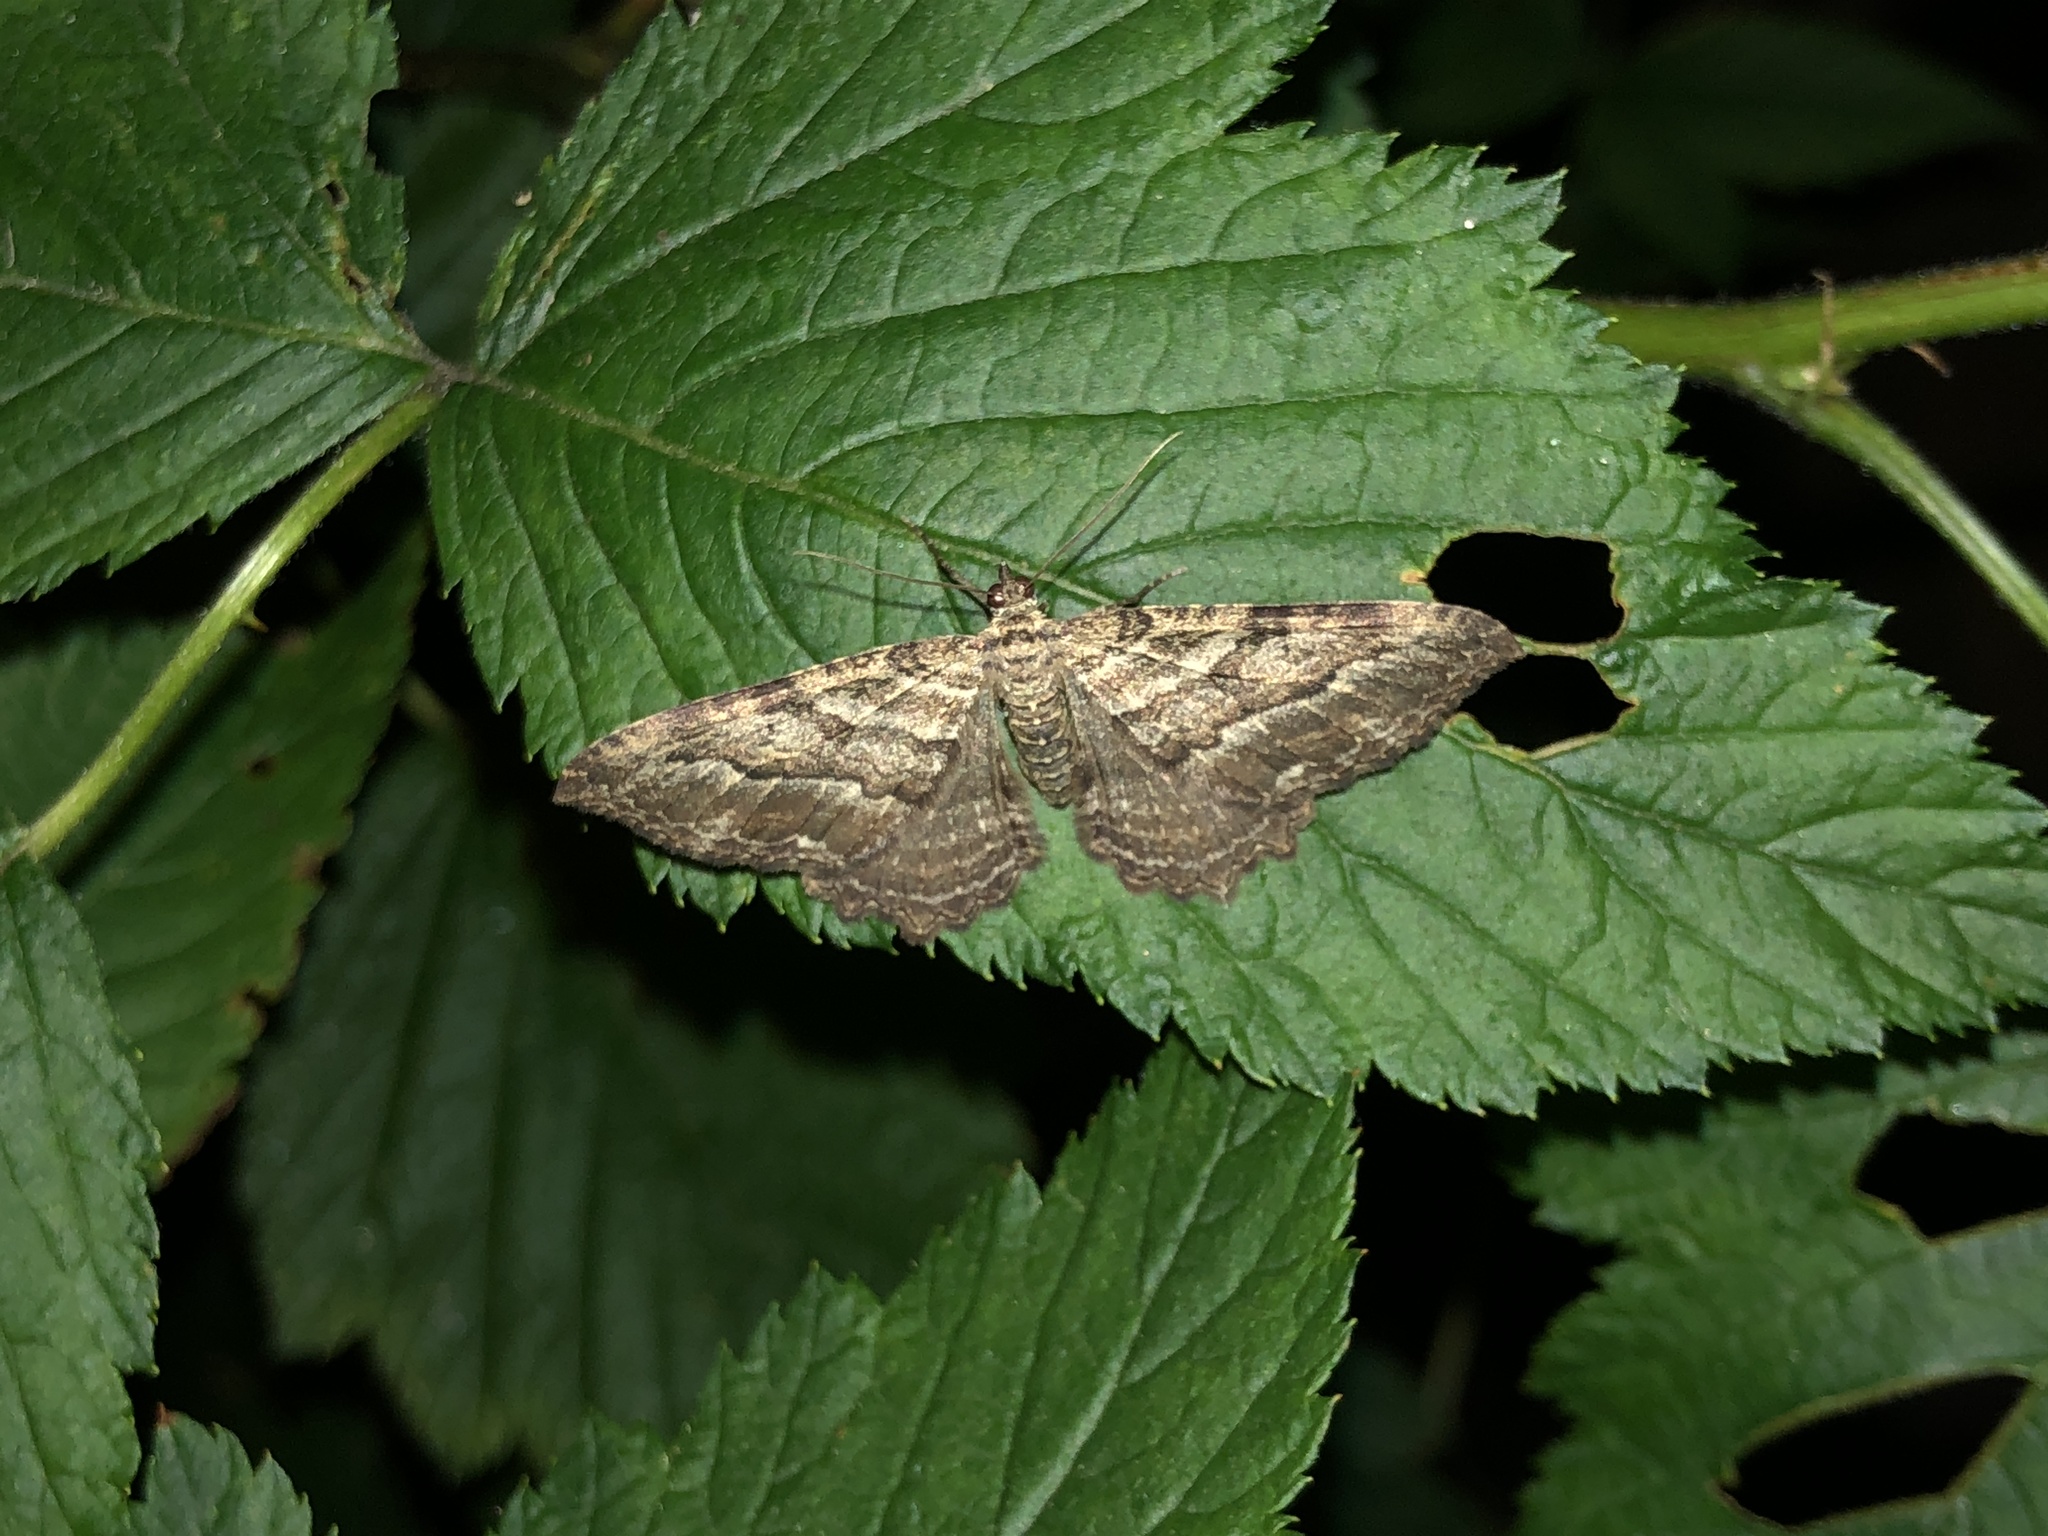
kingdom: Animalia
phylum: Arthropoda
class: Insecta
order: Lepidoptera
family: Geometridae
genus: Rheumaptera
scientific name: Rheumaptera
